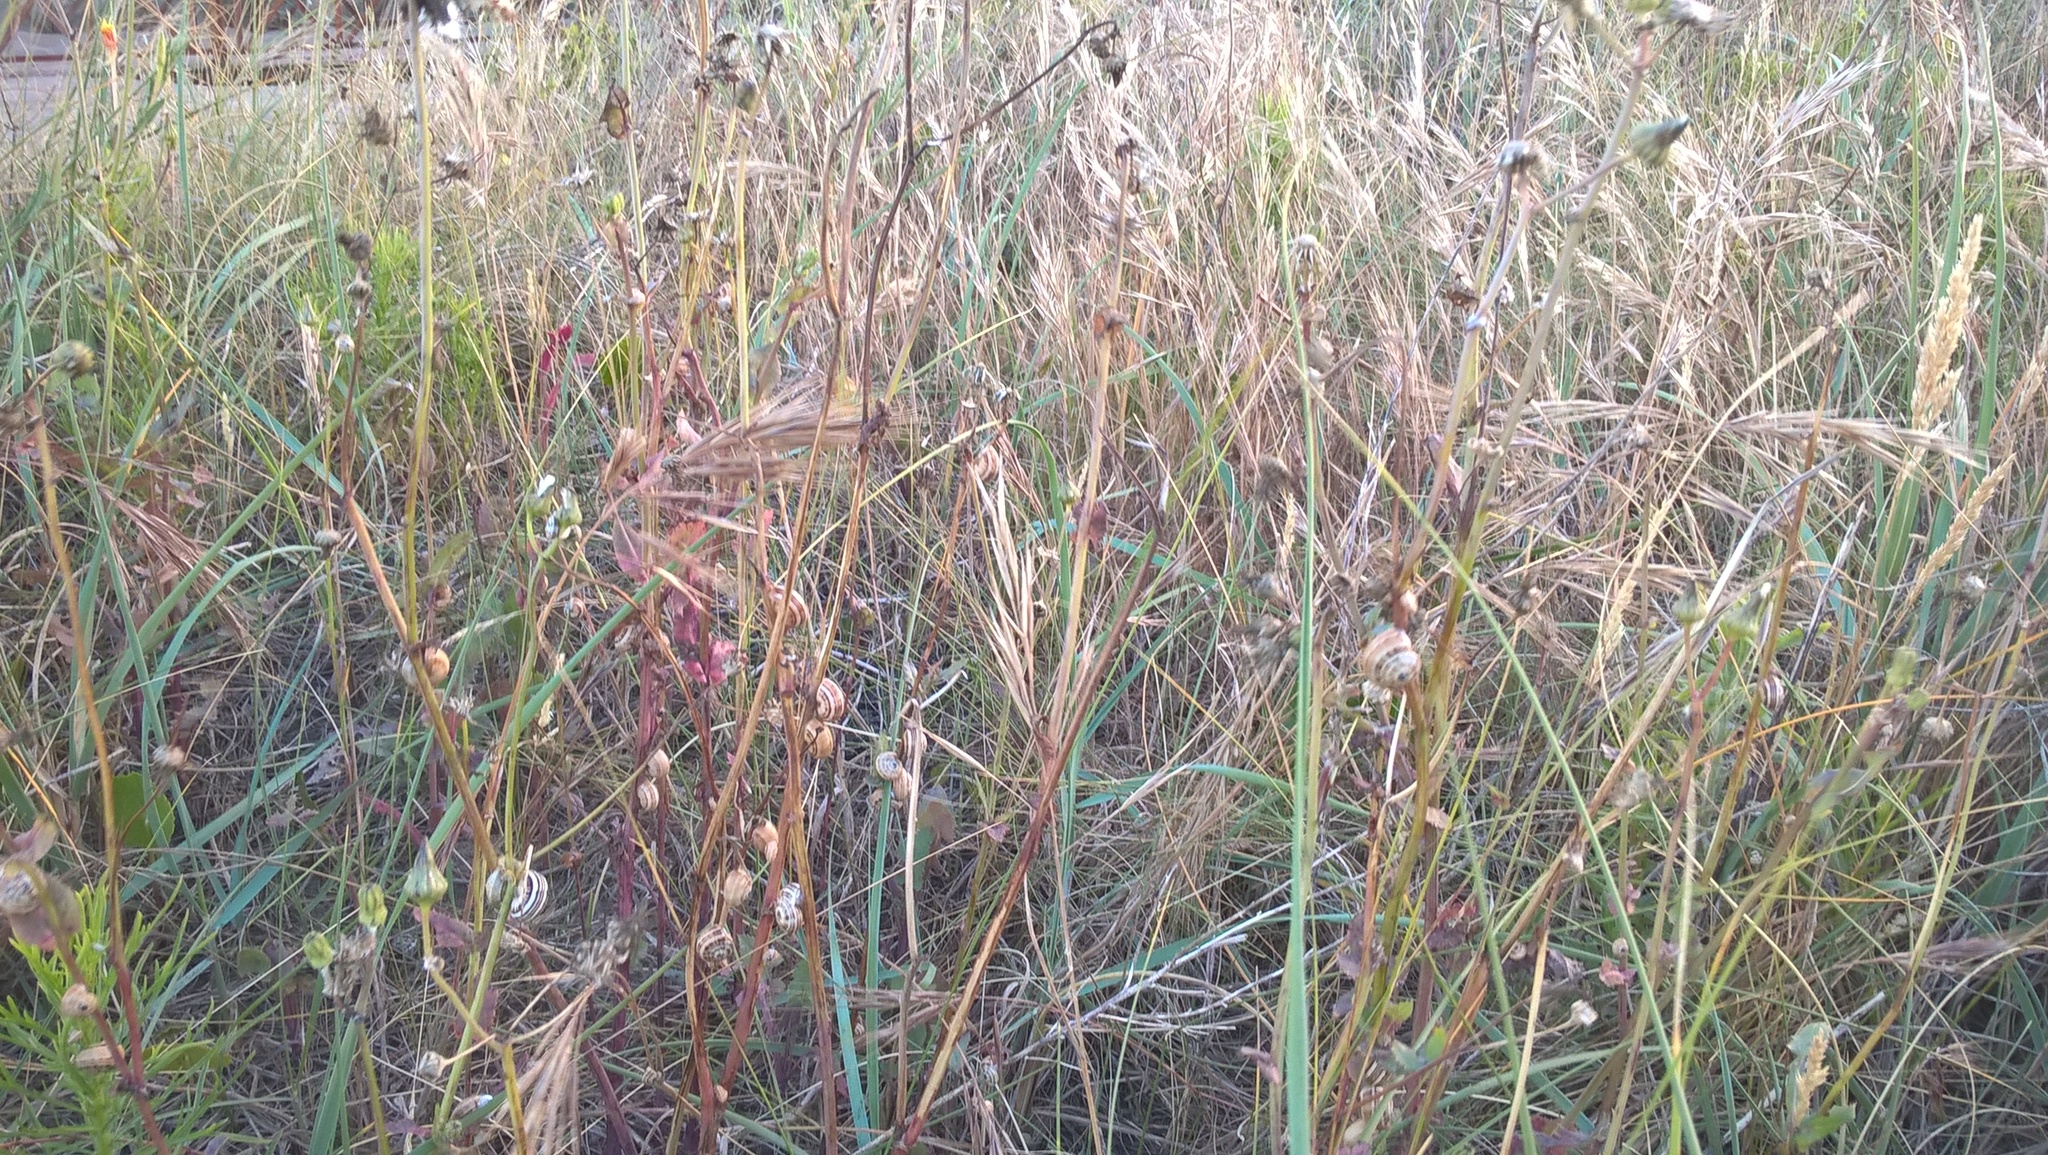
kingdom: Animalia
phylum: Mollusca
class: Gastropoda
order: Stylommatophora
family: Helicidae
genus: Theba
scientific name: Theba pisana
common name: White snail
